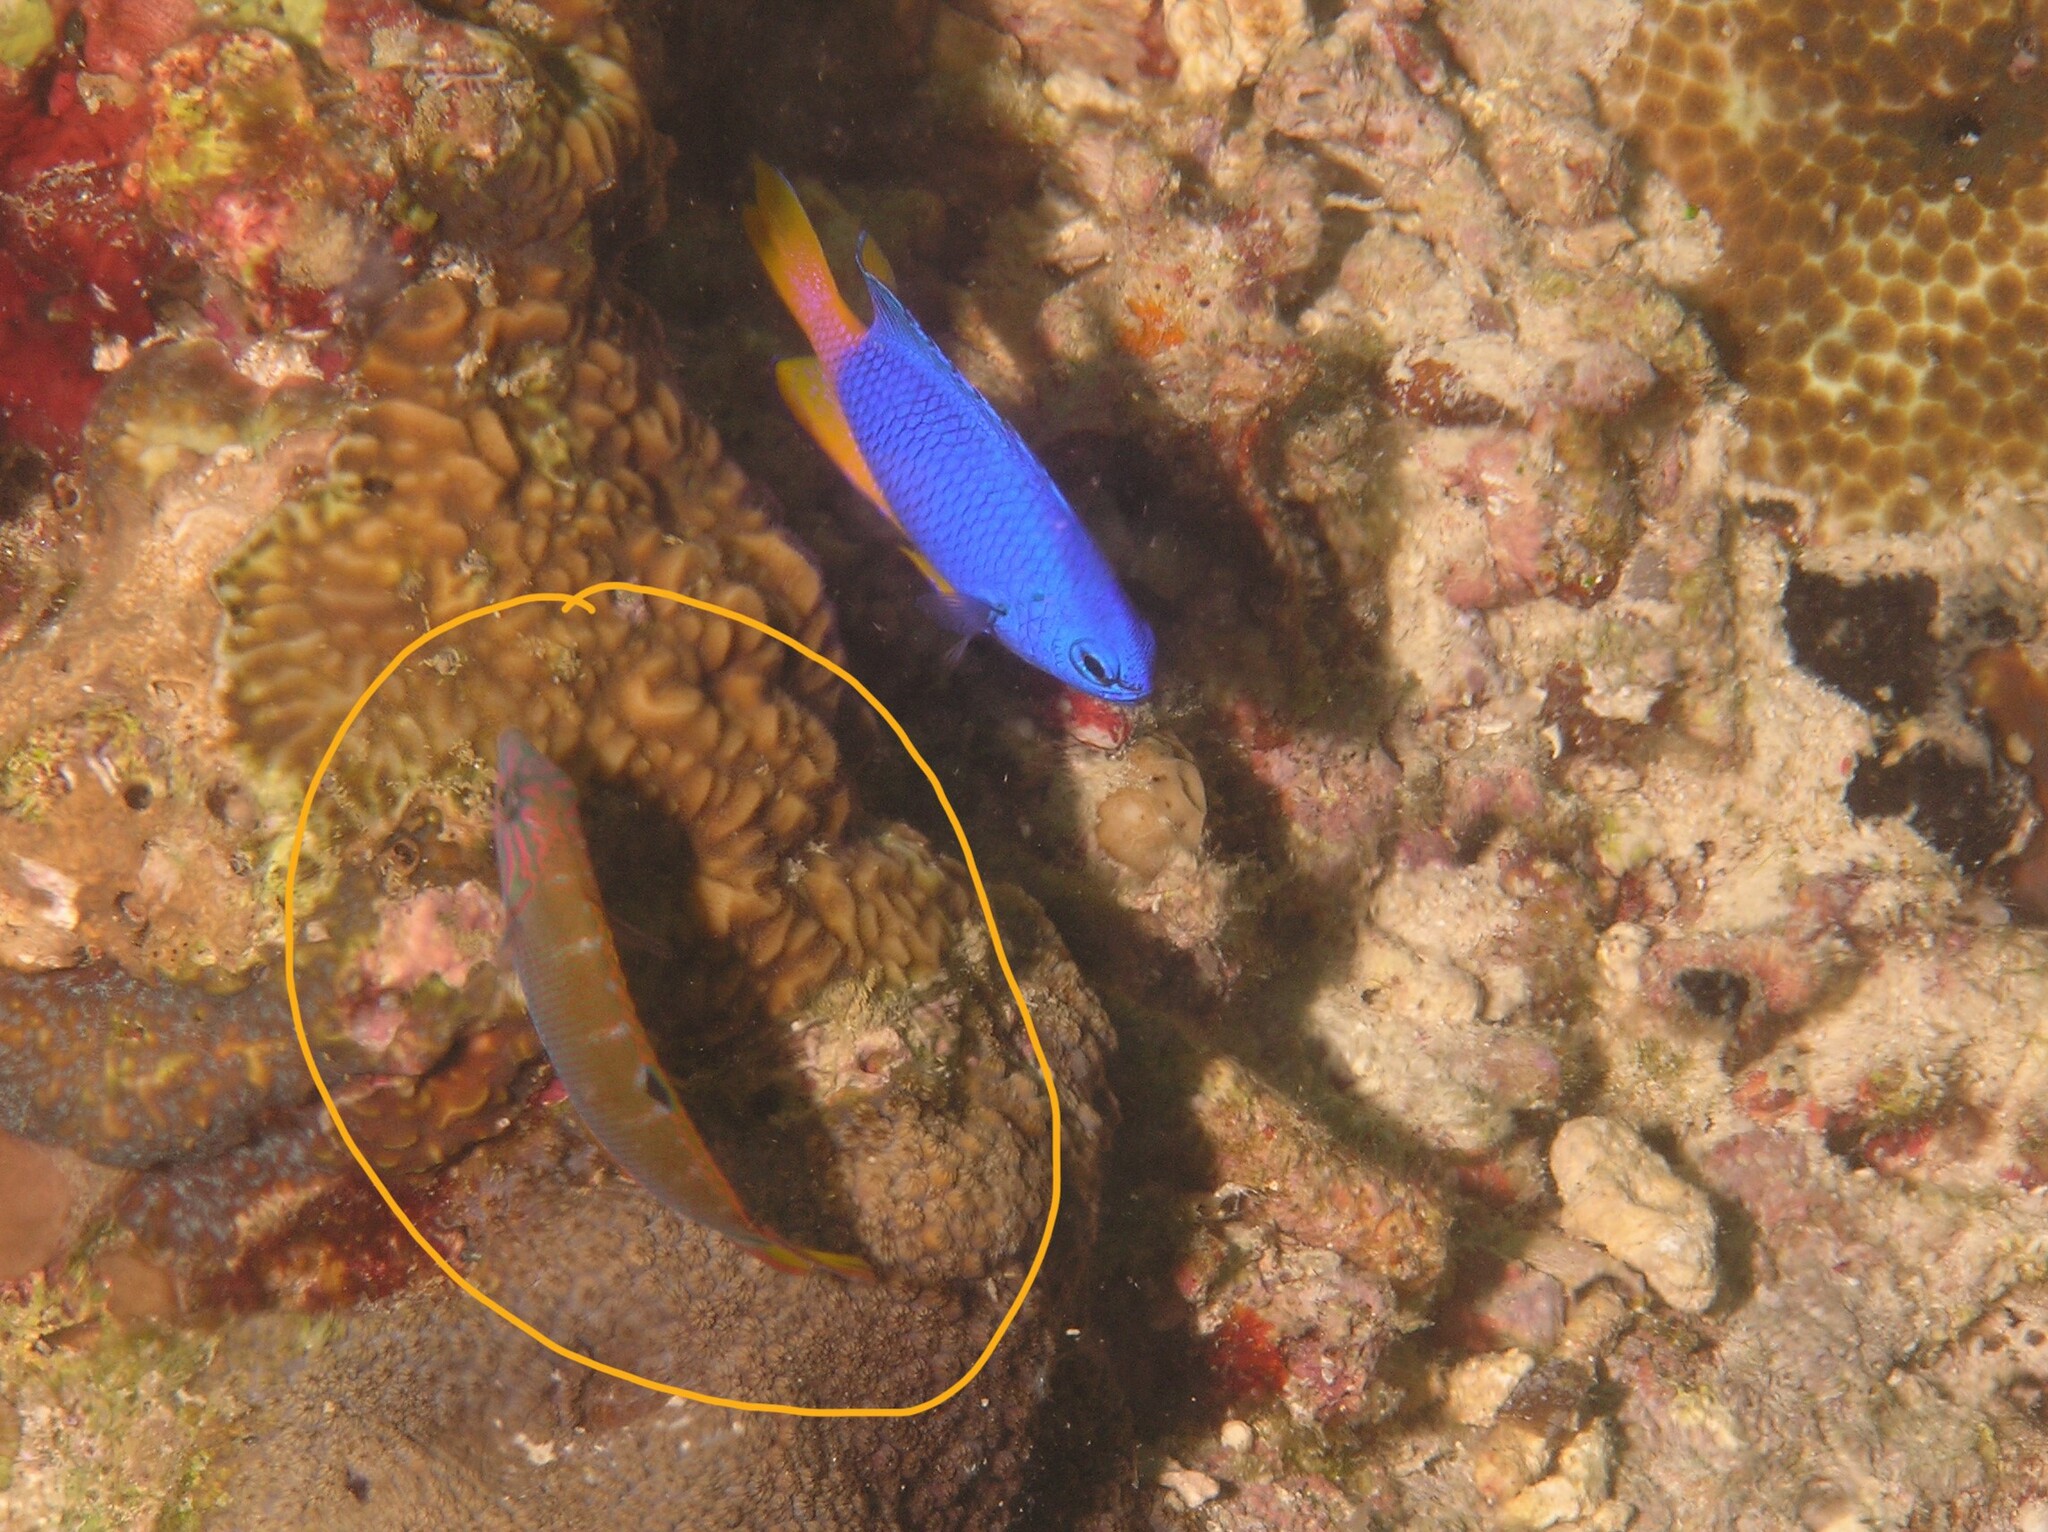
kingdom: Animalia
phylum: Chordata
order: Perciformes
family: Labridae
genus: Thalassoma
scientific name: Thalassoma lunare
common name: Blue wrasse
